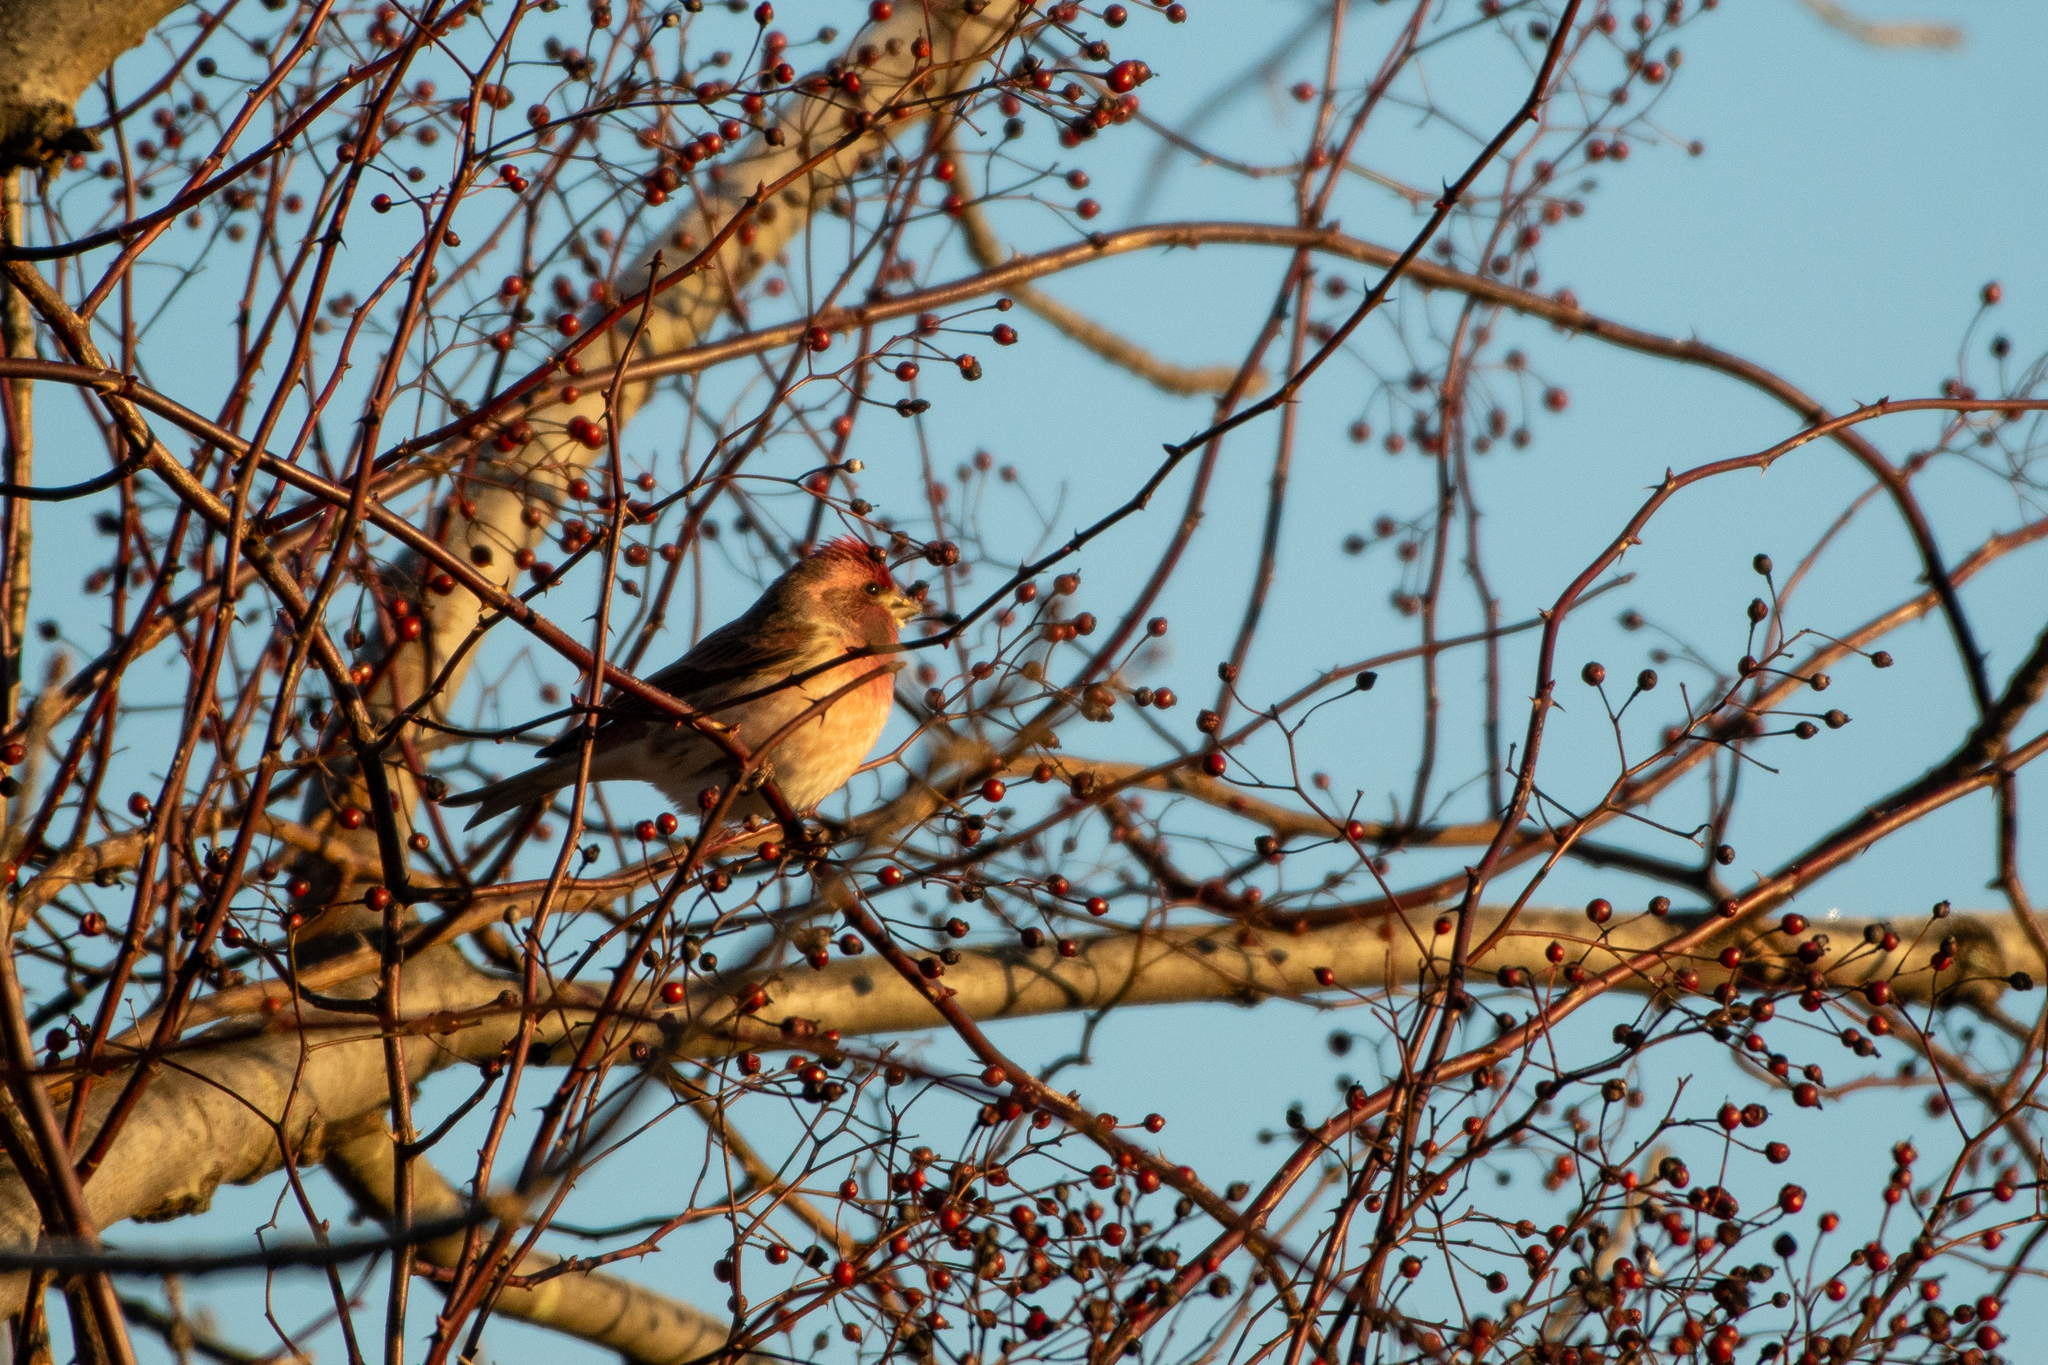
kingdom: Animalia
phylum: Chordata
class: Aves
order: Passeriformes
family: Fringillidae
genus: Haemorhous
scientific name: Haemorhous purpureus
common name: Purple finch
